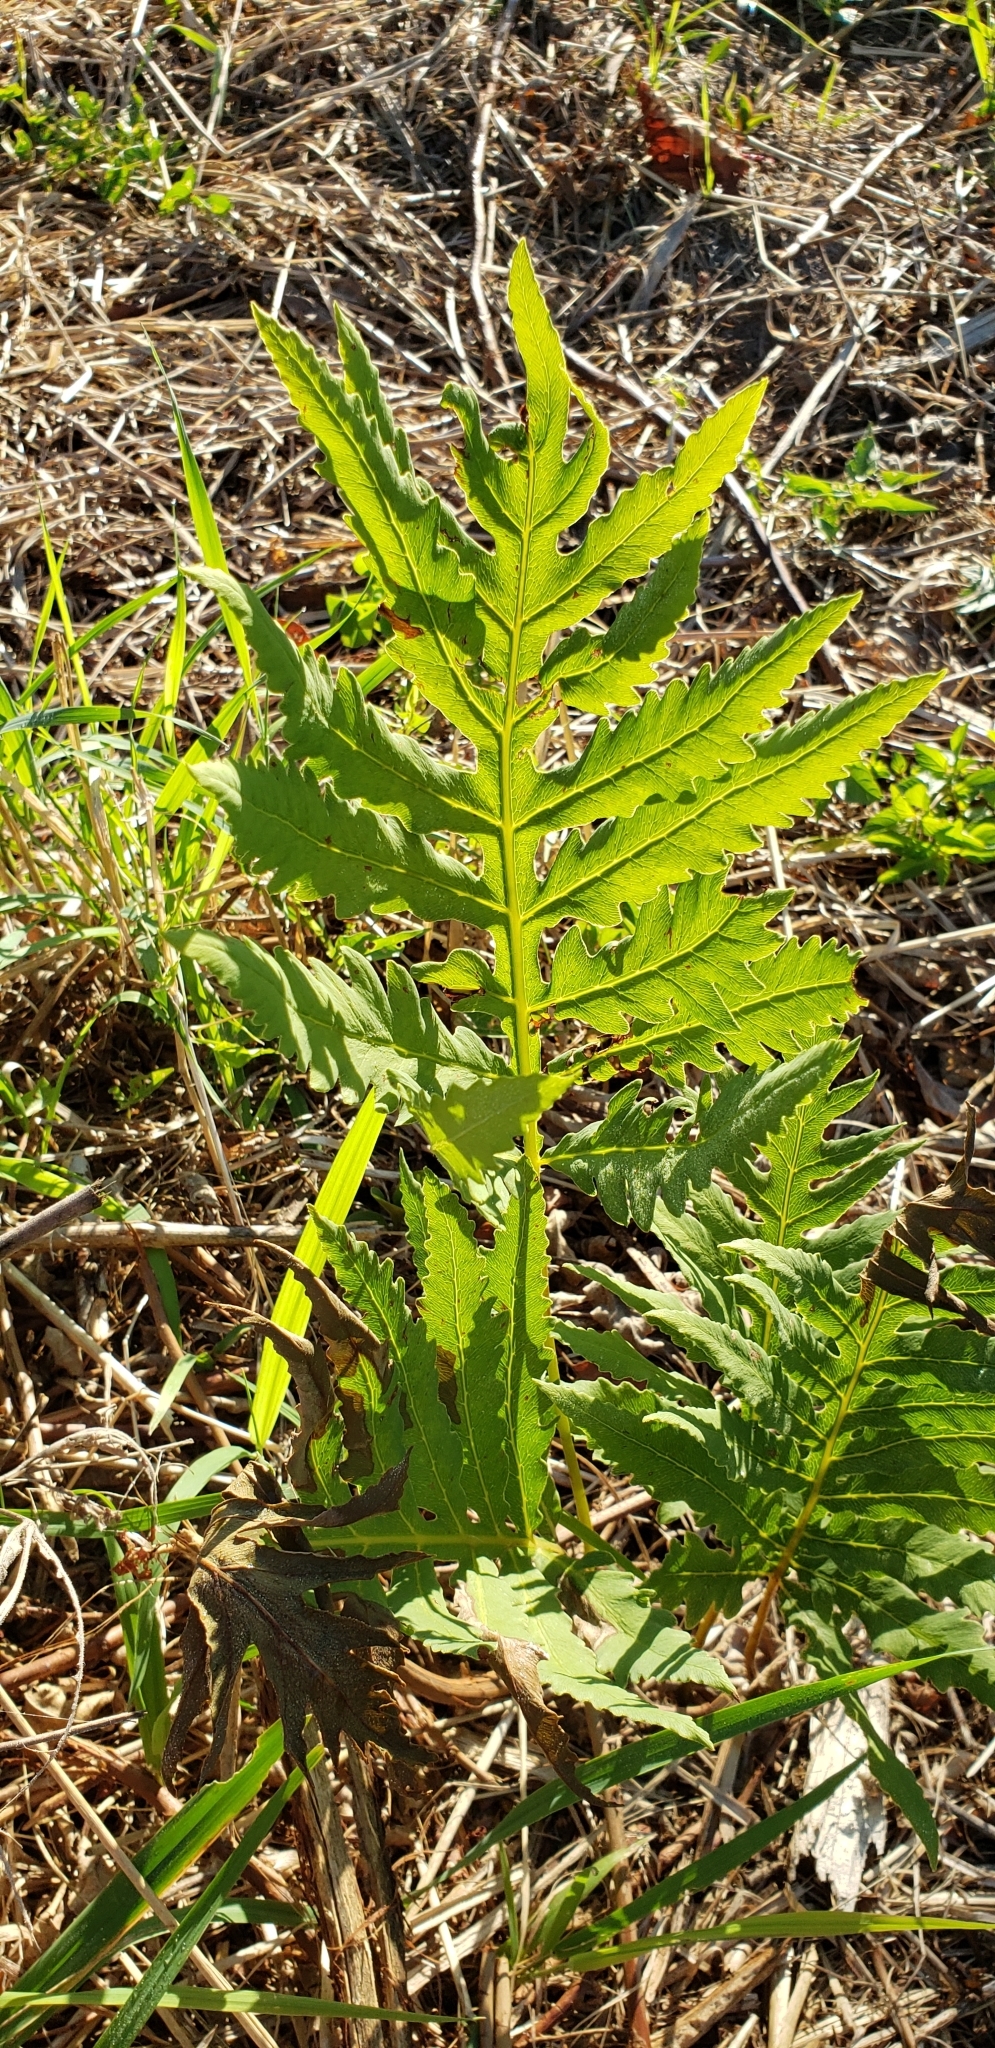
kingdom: Plantae
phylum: Tracheophyta
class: Polypodiopsida
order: Polypodiales
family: Onocleaceae
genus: Onoclea
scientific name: Onoclea sensibilis
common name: Sensitive fern
